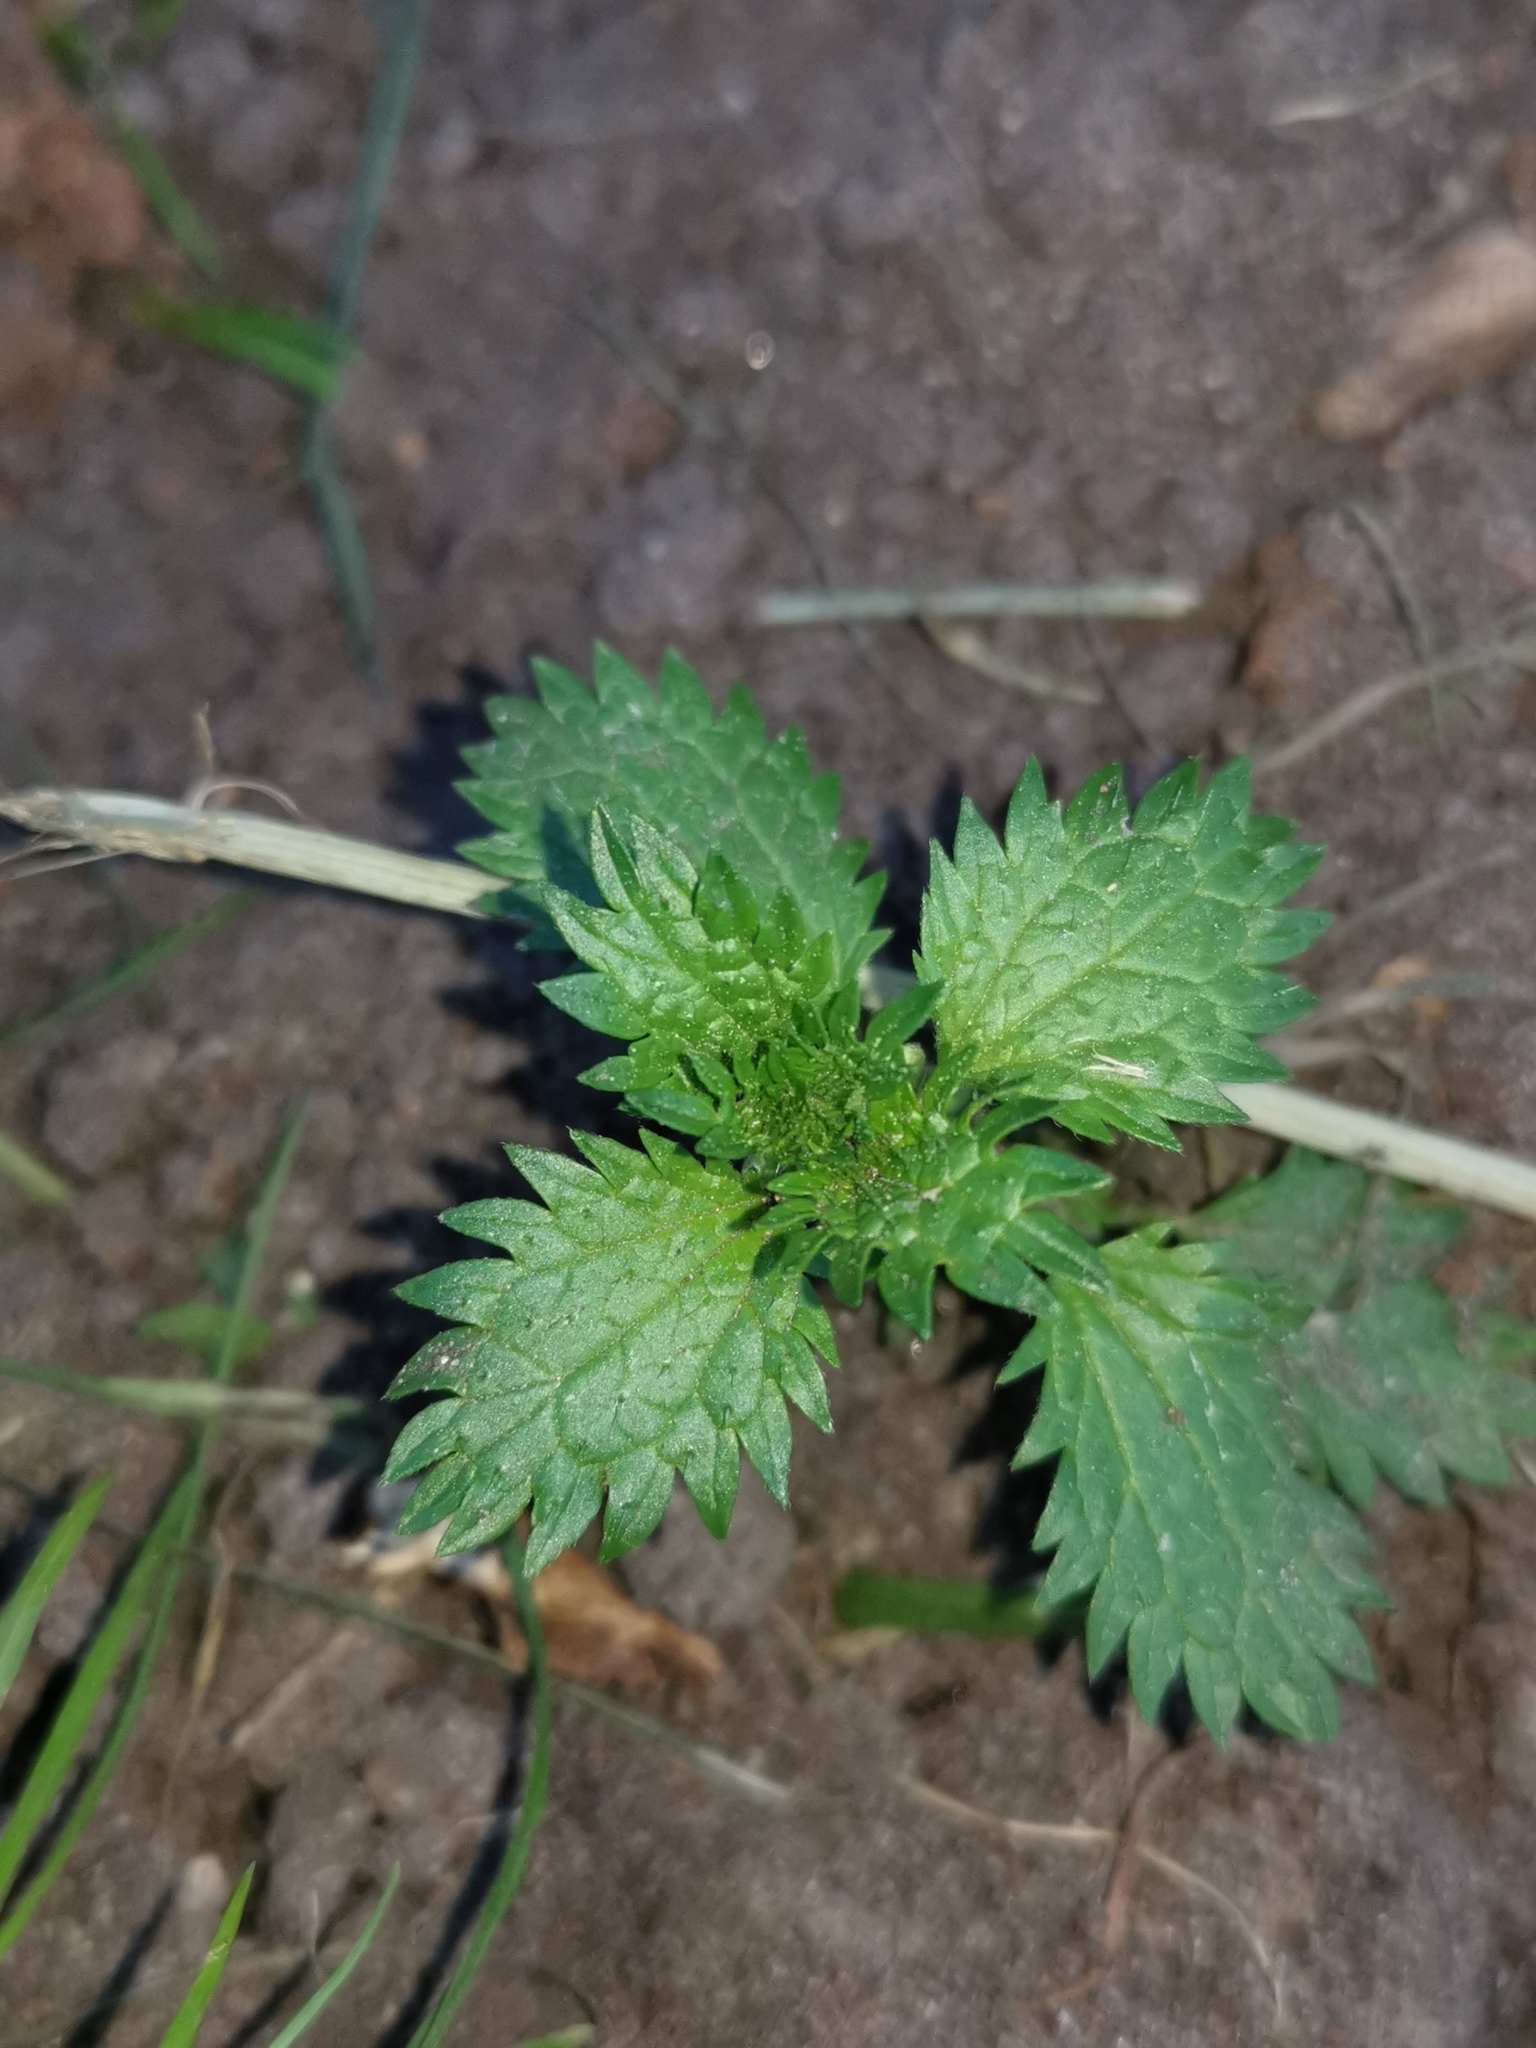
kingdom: Plantae
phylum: Tracheophyta
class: Magnoliopsida
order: Rosales
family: Urticaceae
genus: Urtica
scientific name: Urtica urens
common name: Dwarf nettle
